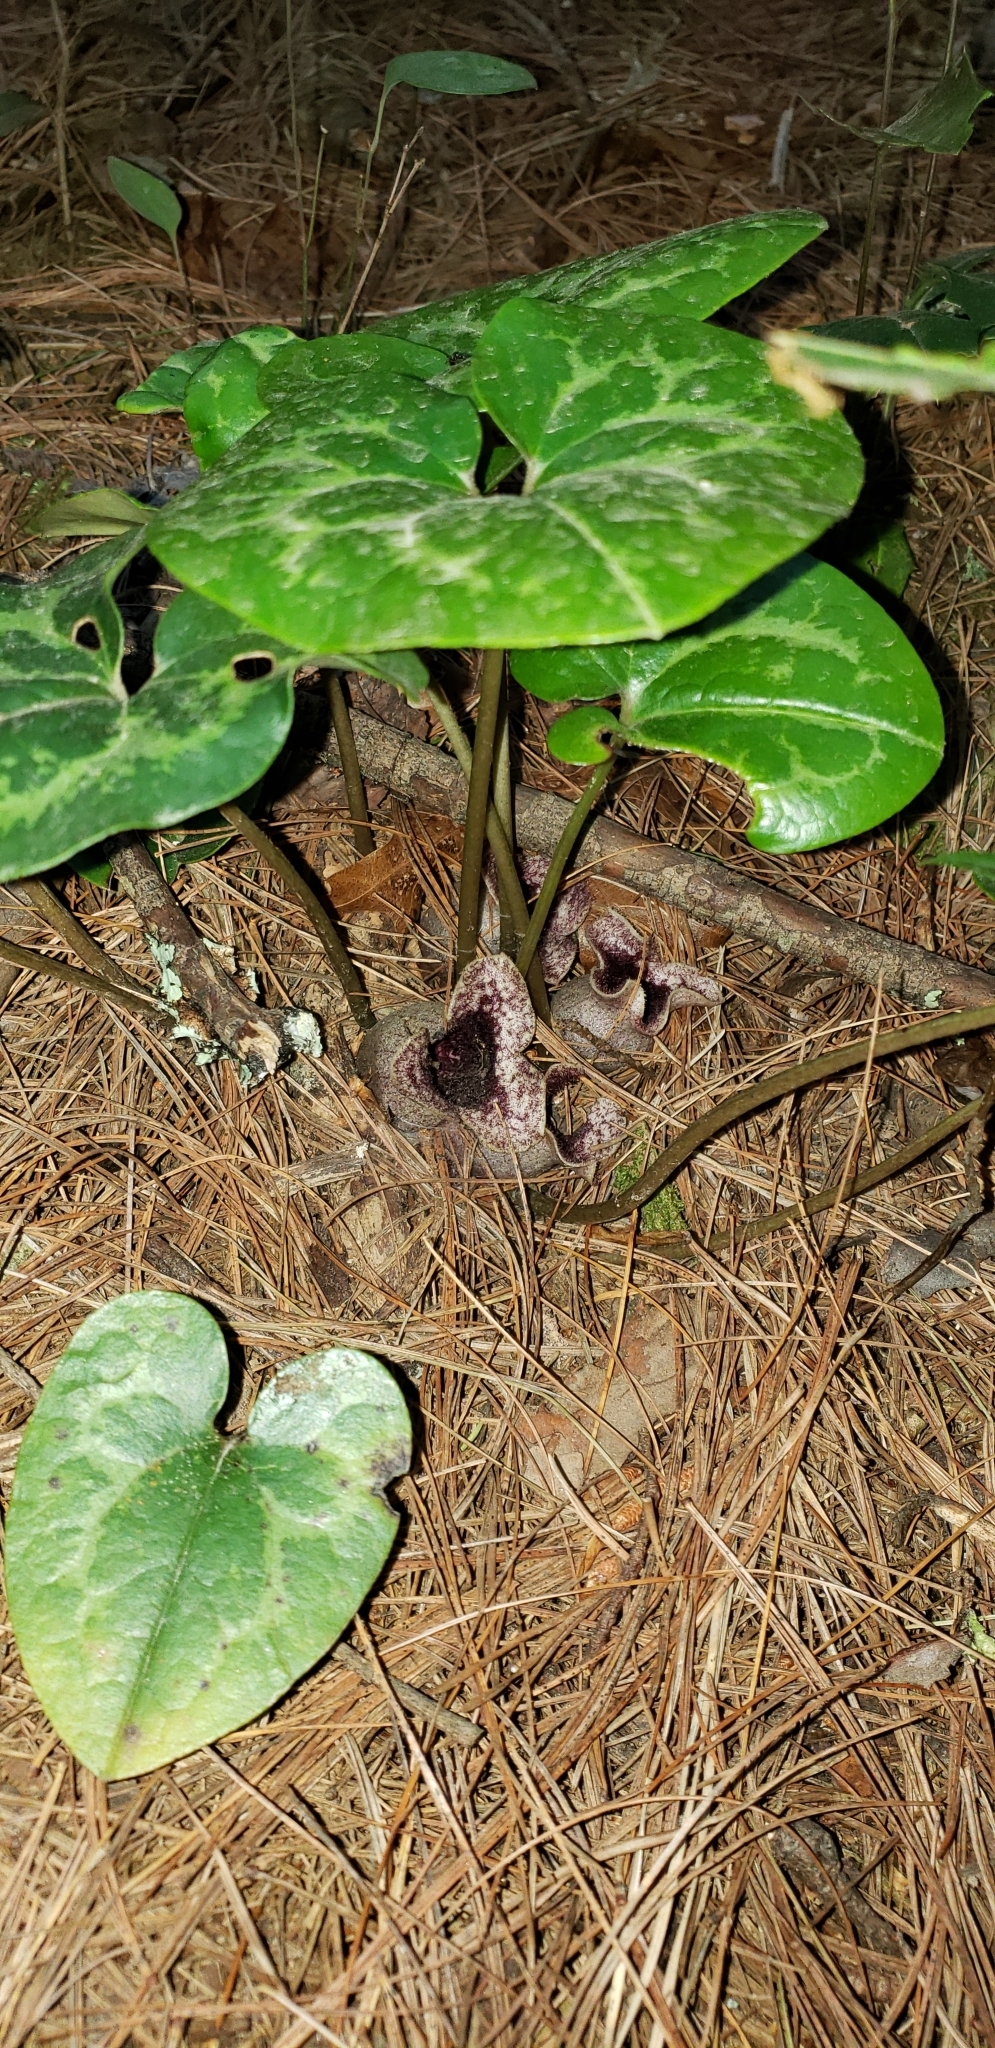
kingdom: Plantae
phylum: Tracheophyta
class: Magnoliopsida
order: Piperales
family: Aristolochiaceae
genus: Hexastylis
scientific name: Hexastylis shuttleworthii
